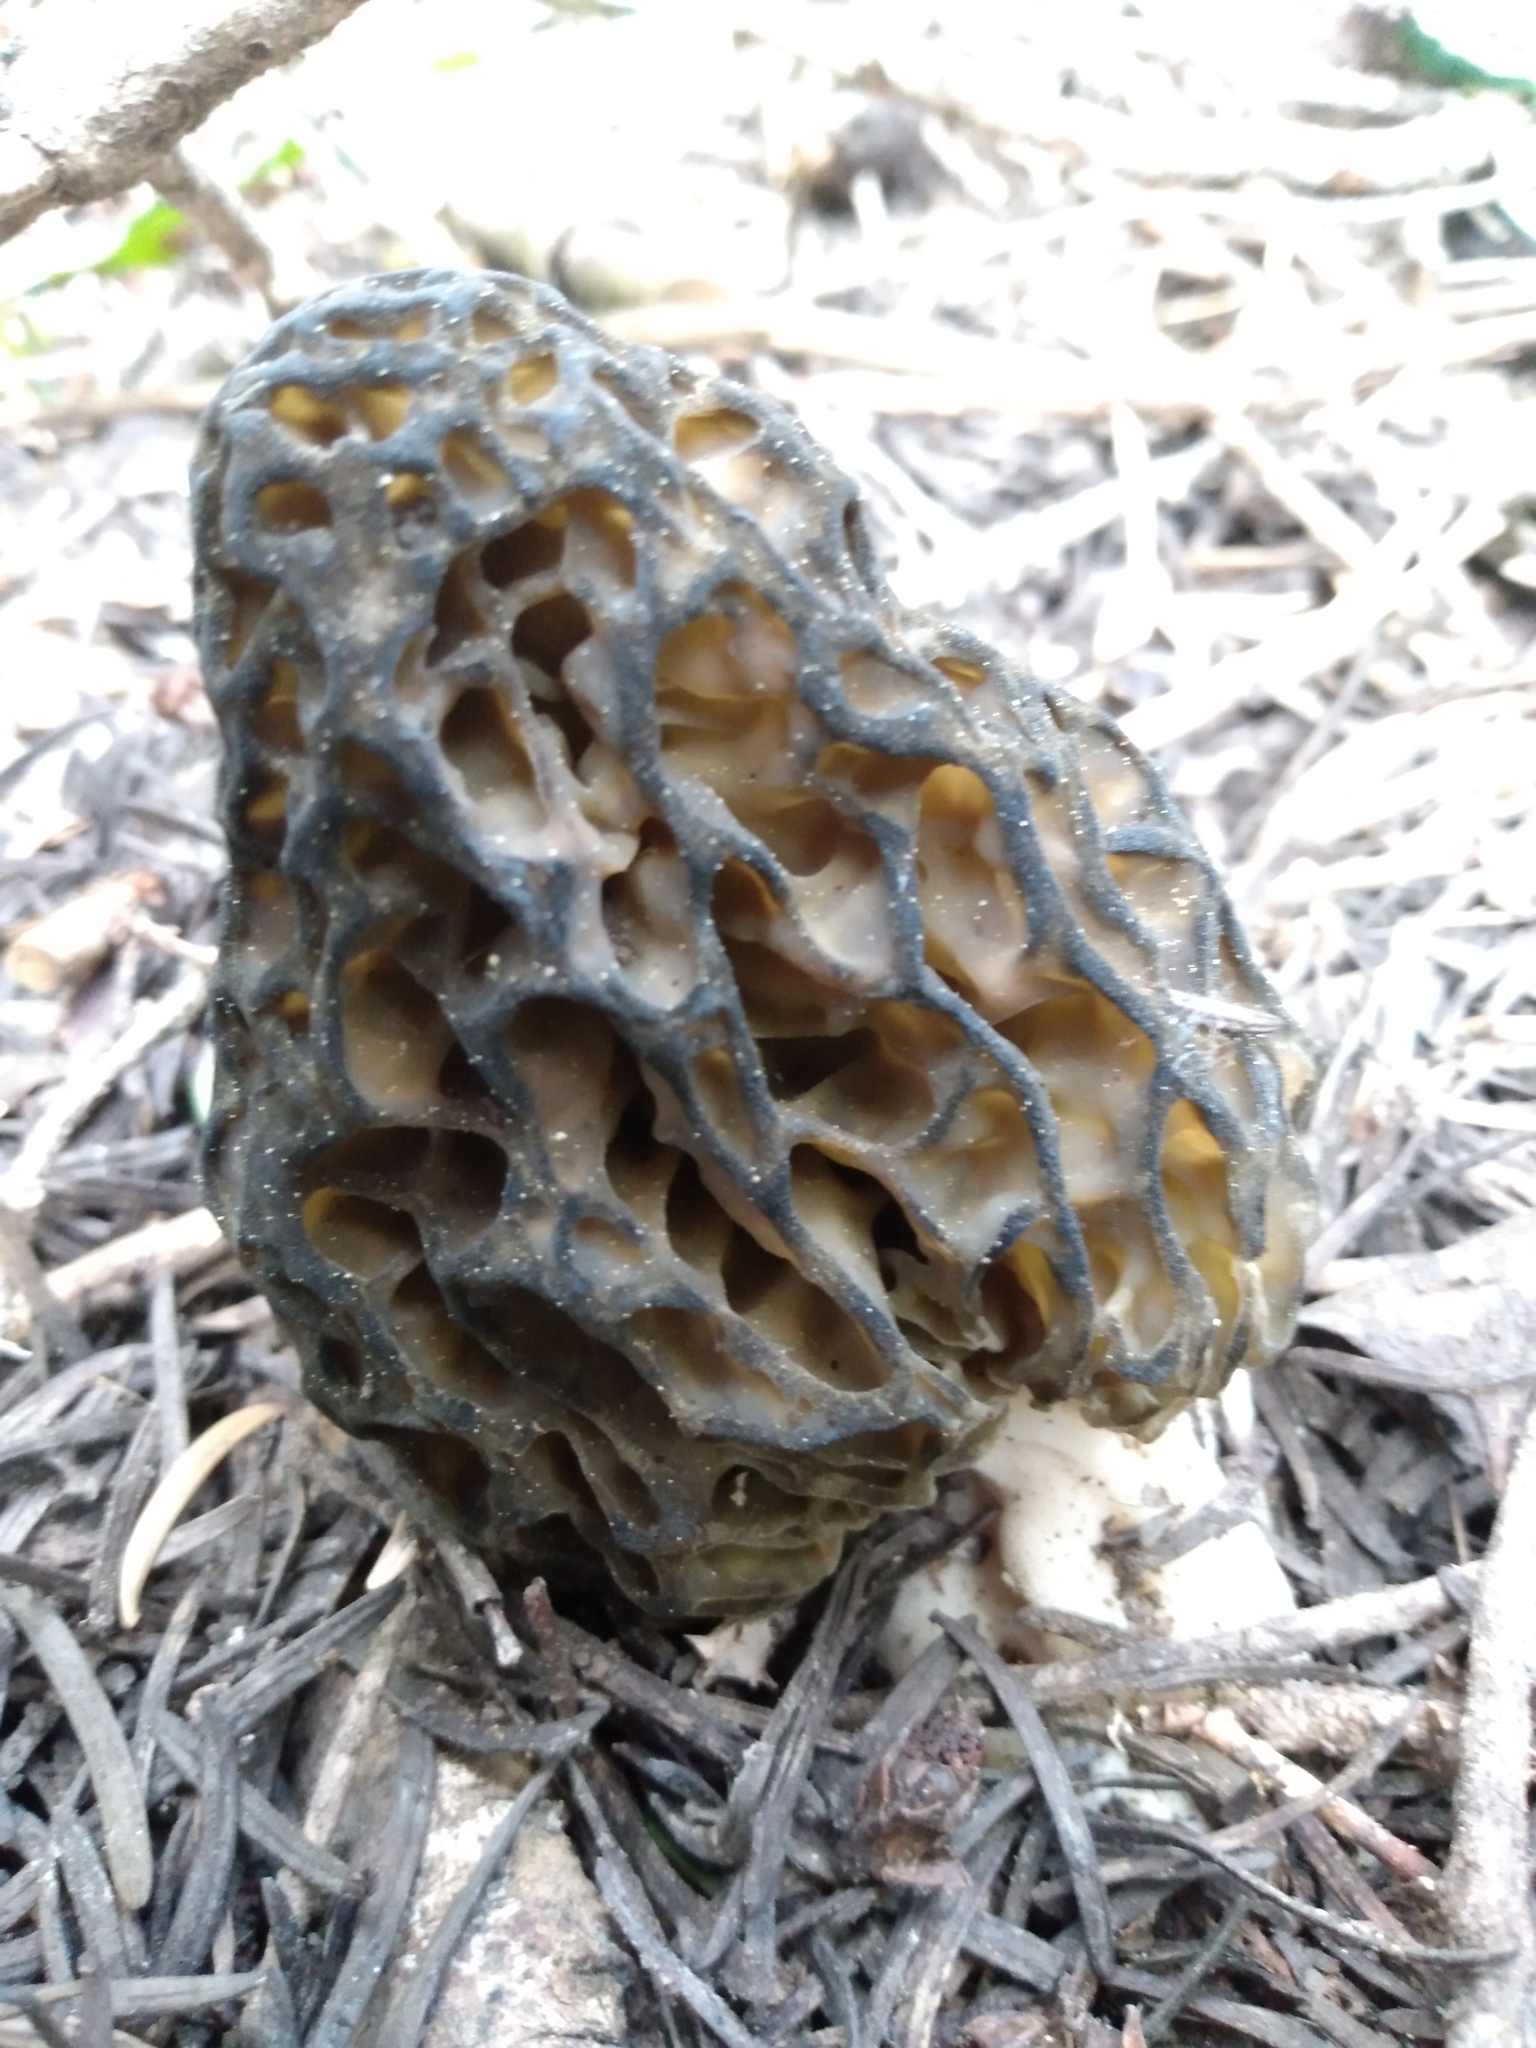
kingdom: Fungi
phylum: Ascomycota
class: Pezizomycetes
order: Pezizales
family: Morchellaceae
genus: Morchella
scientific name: Morchella snyderi
